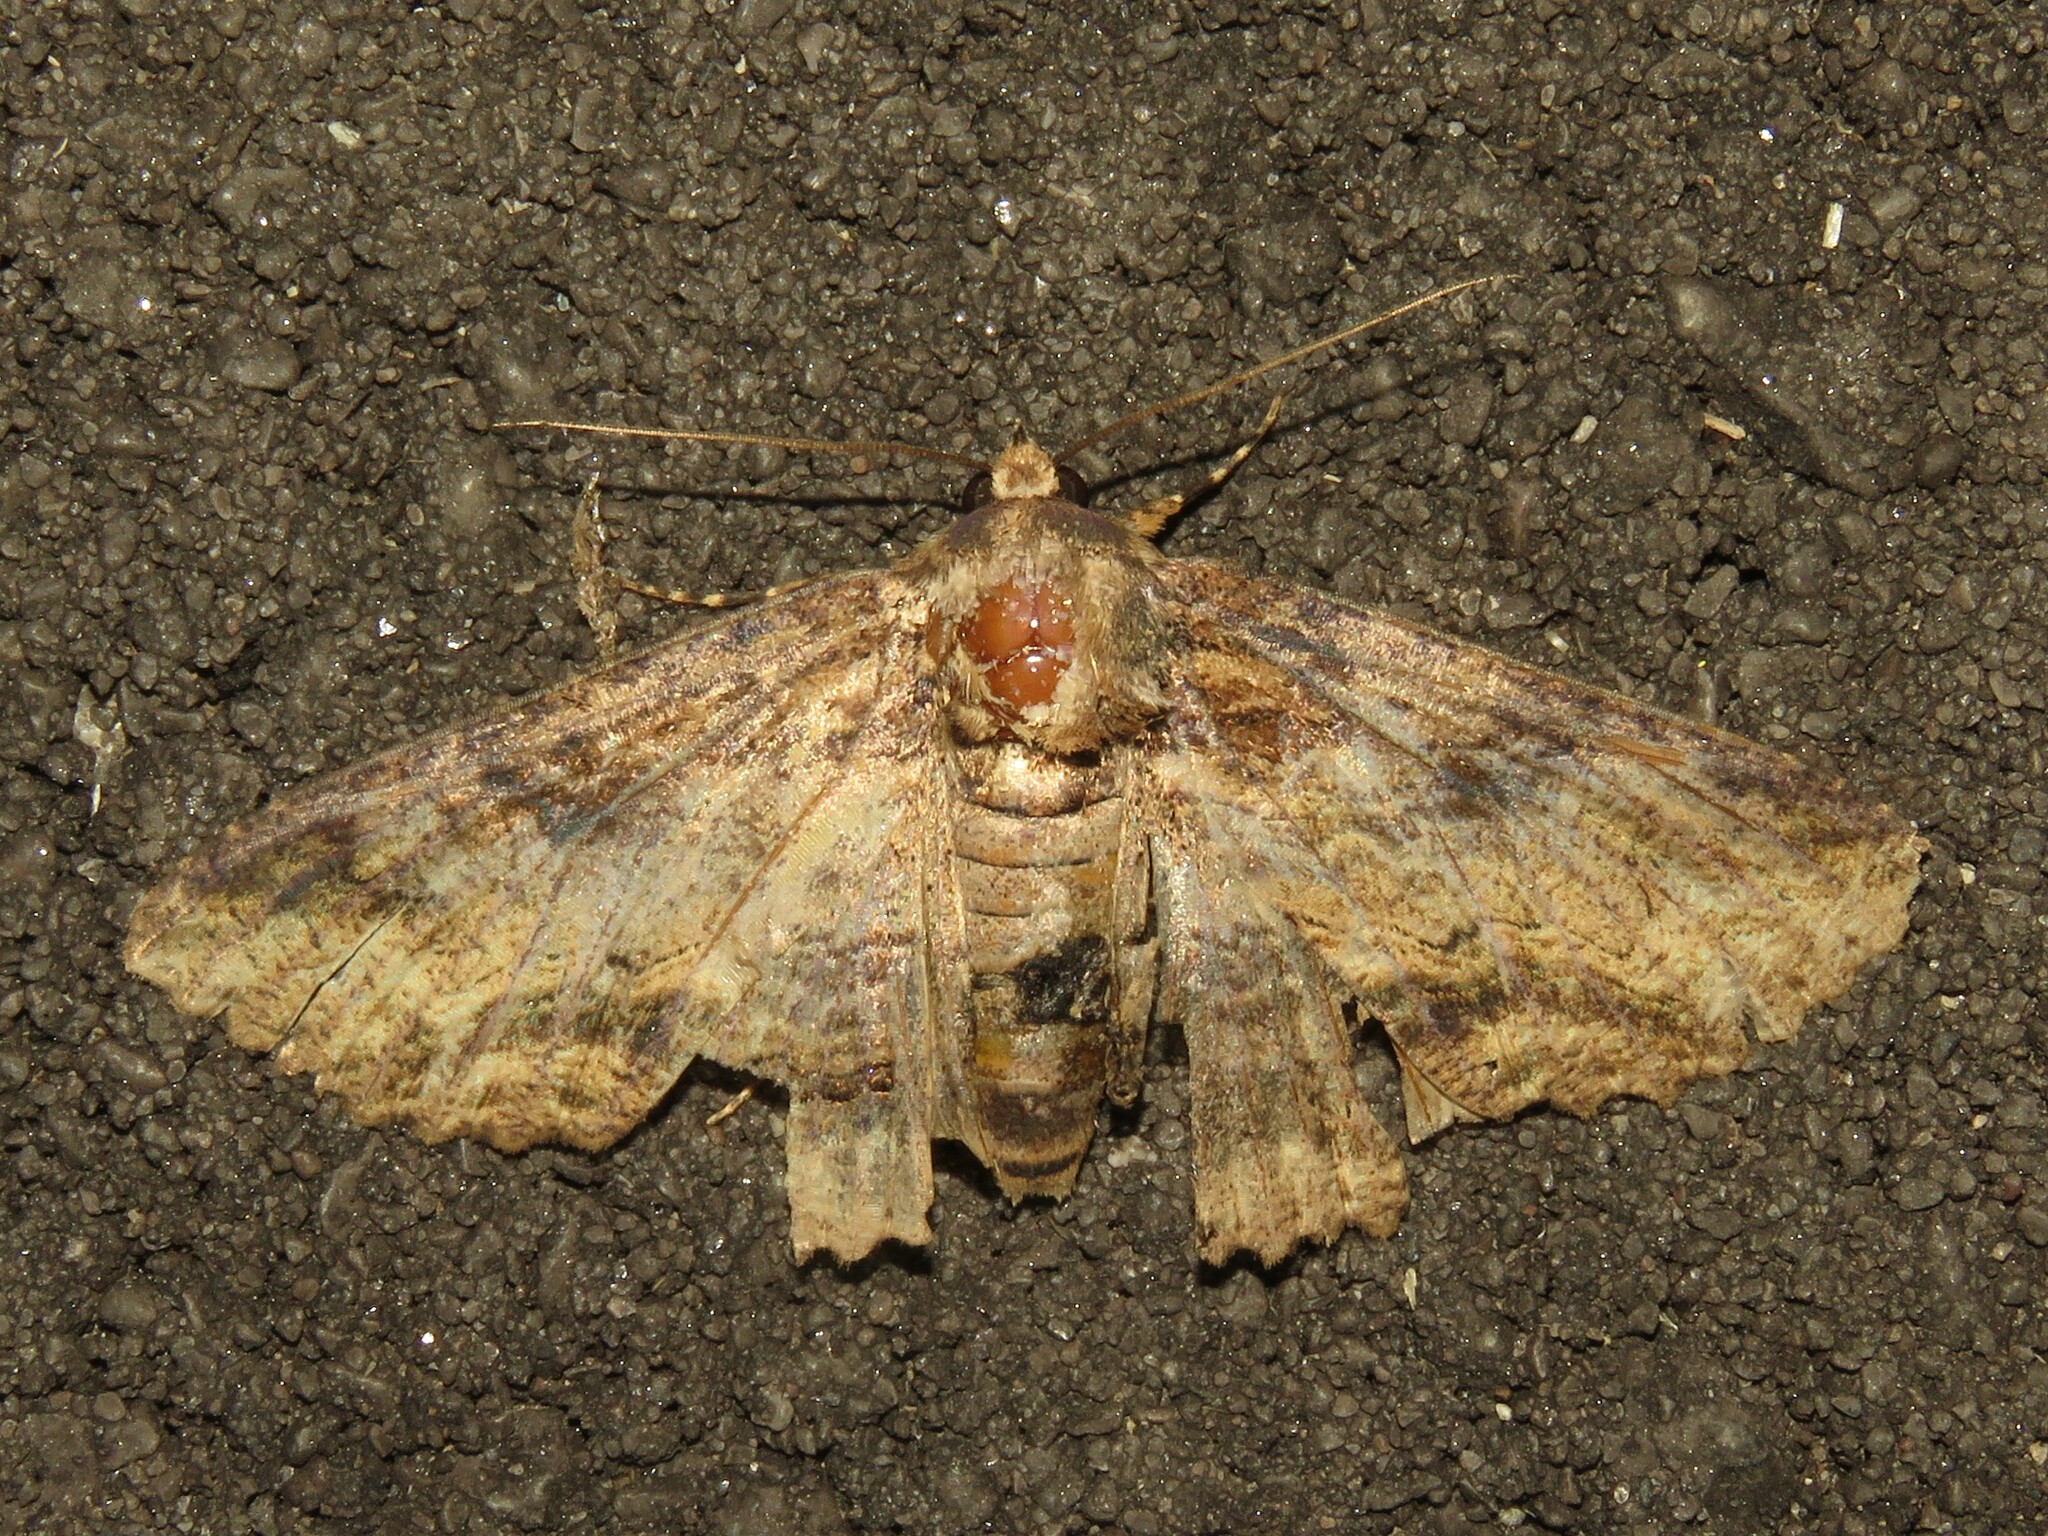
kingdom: Animalia
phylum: Arthropoda
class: Insecta
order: Lepidoptera
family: Erebidae
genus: Zale
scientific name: Zale lunata
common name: Lunate zale moth
